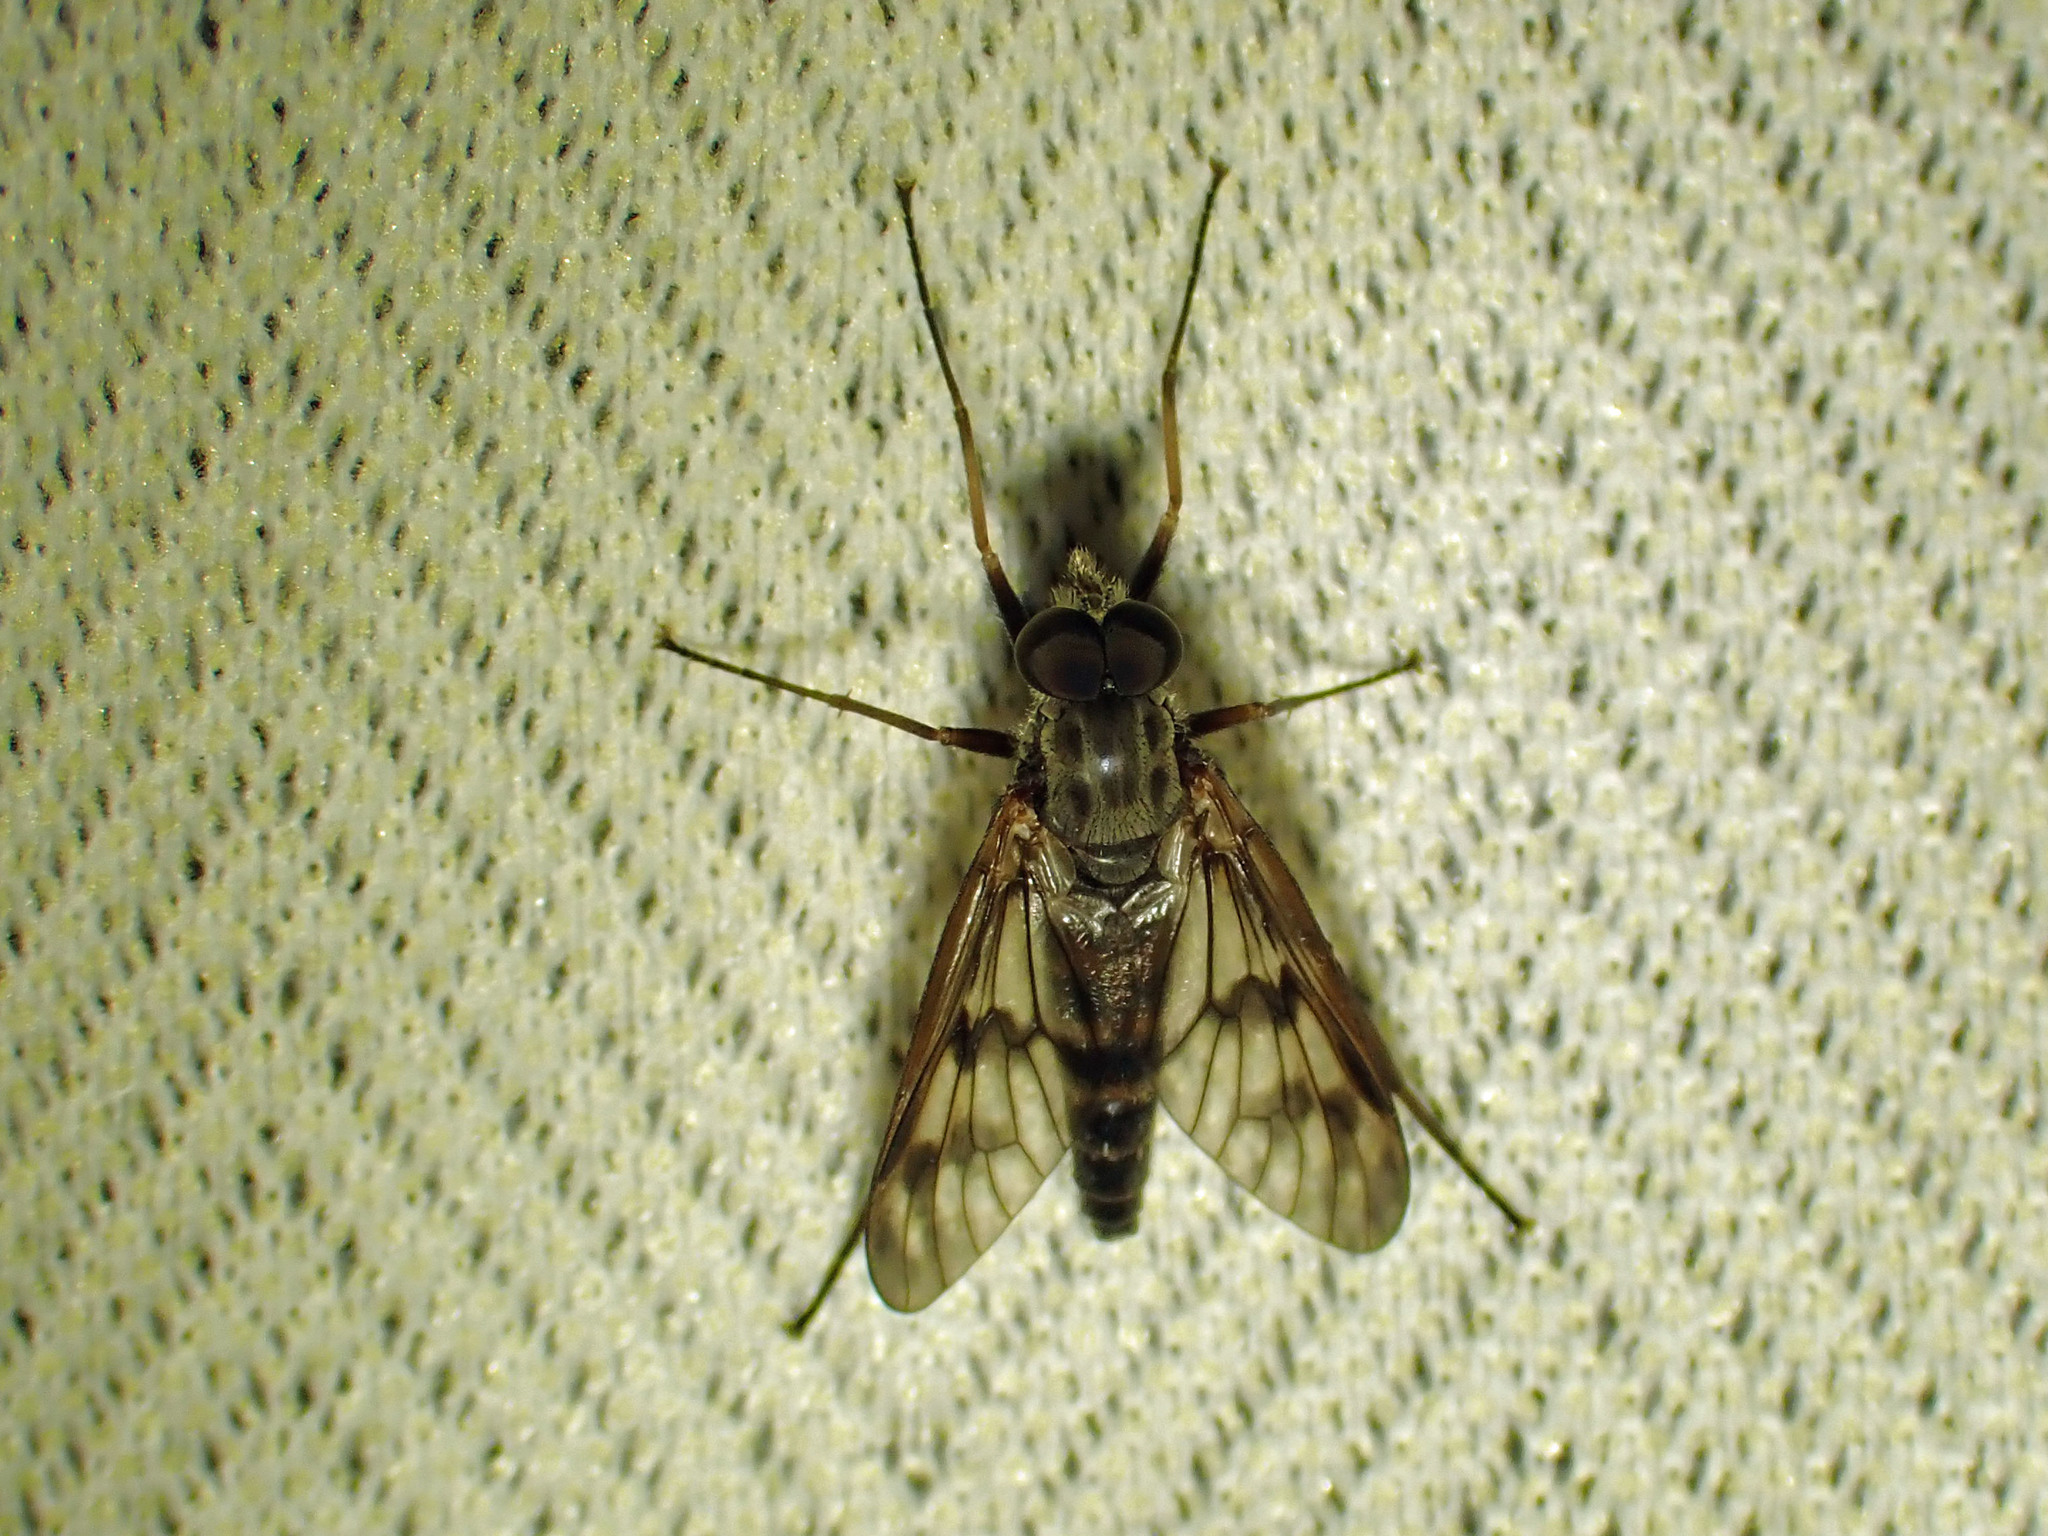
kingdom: Animalia
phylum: Arthropoda
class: Insecta
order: Diptera
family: Rhagionidae
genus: Rhagio
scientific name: Rhagio mystaceus
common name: Common snipe fly
